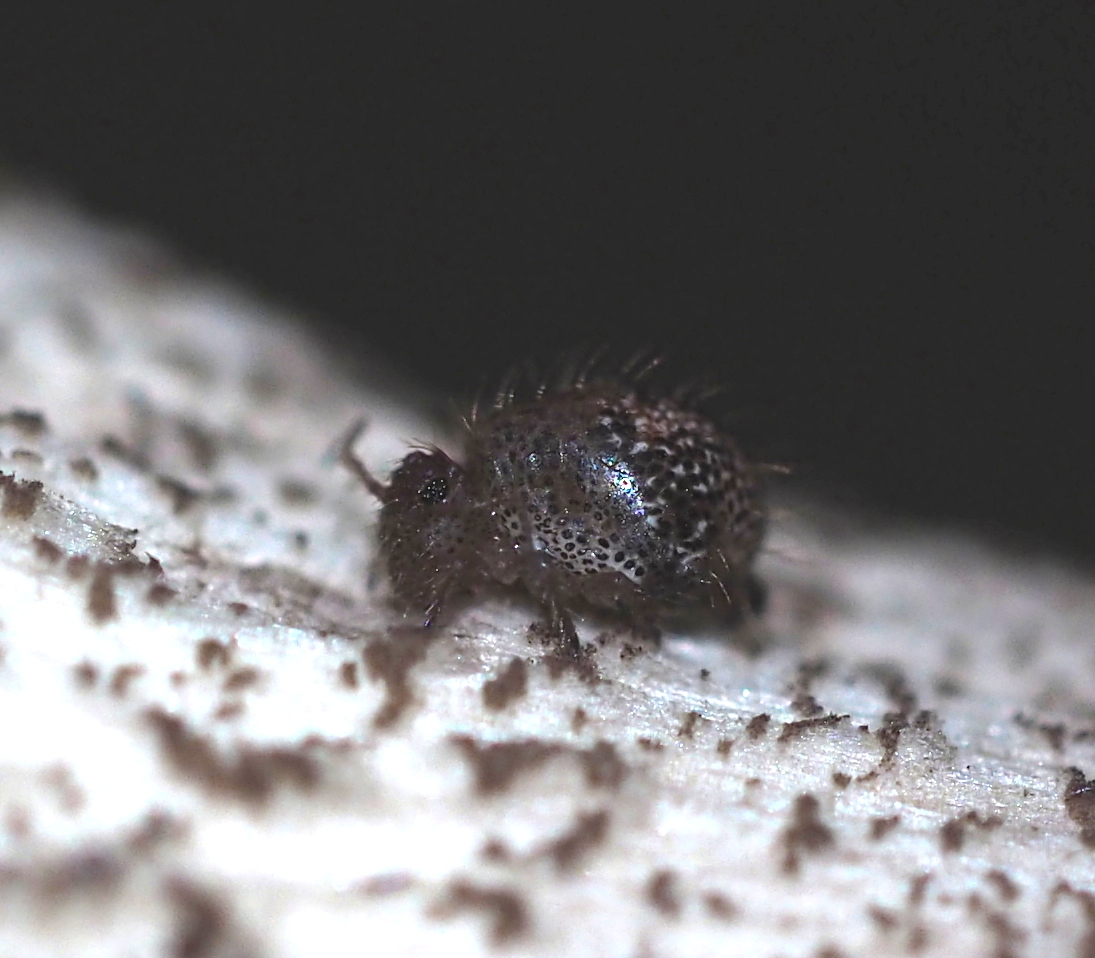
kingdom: Animalia
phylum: Arthropoda
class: Collembola
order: Symphypleona
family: Sminthuridae
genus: Allacma
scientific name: Allacma fusca
